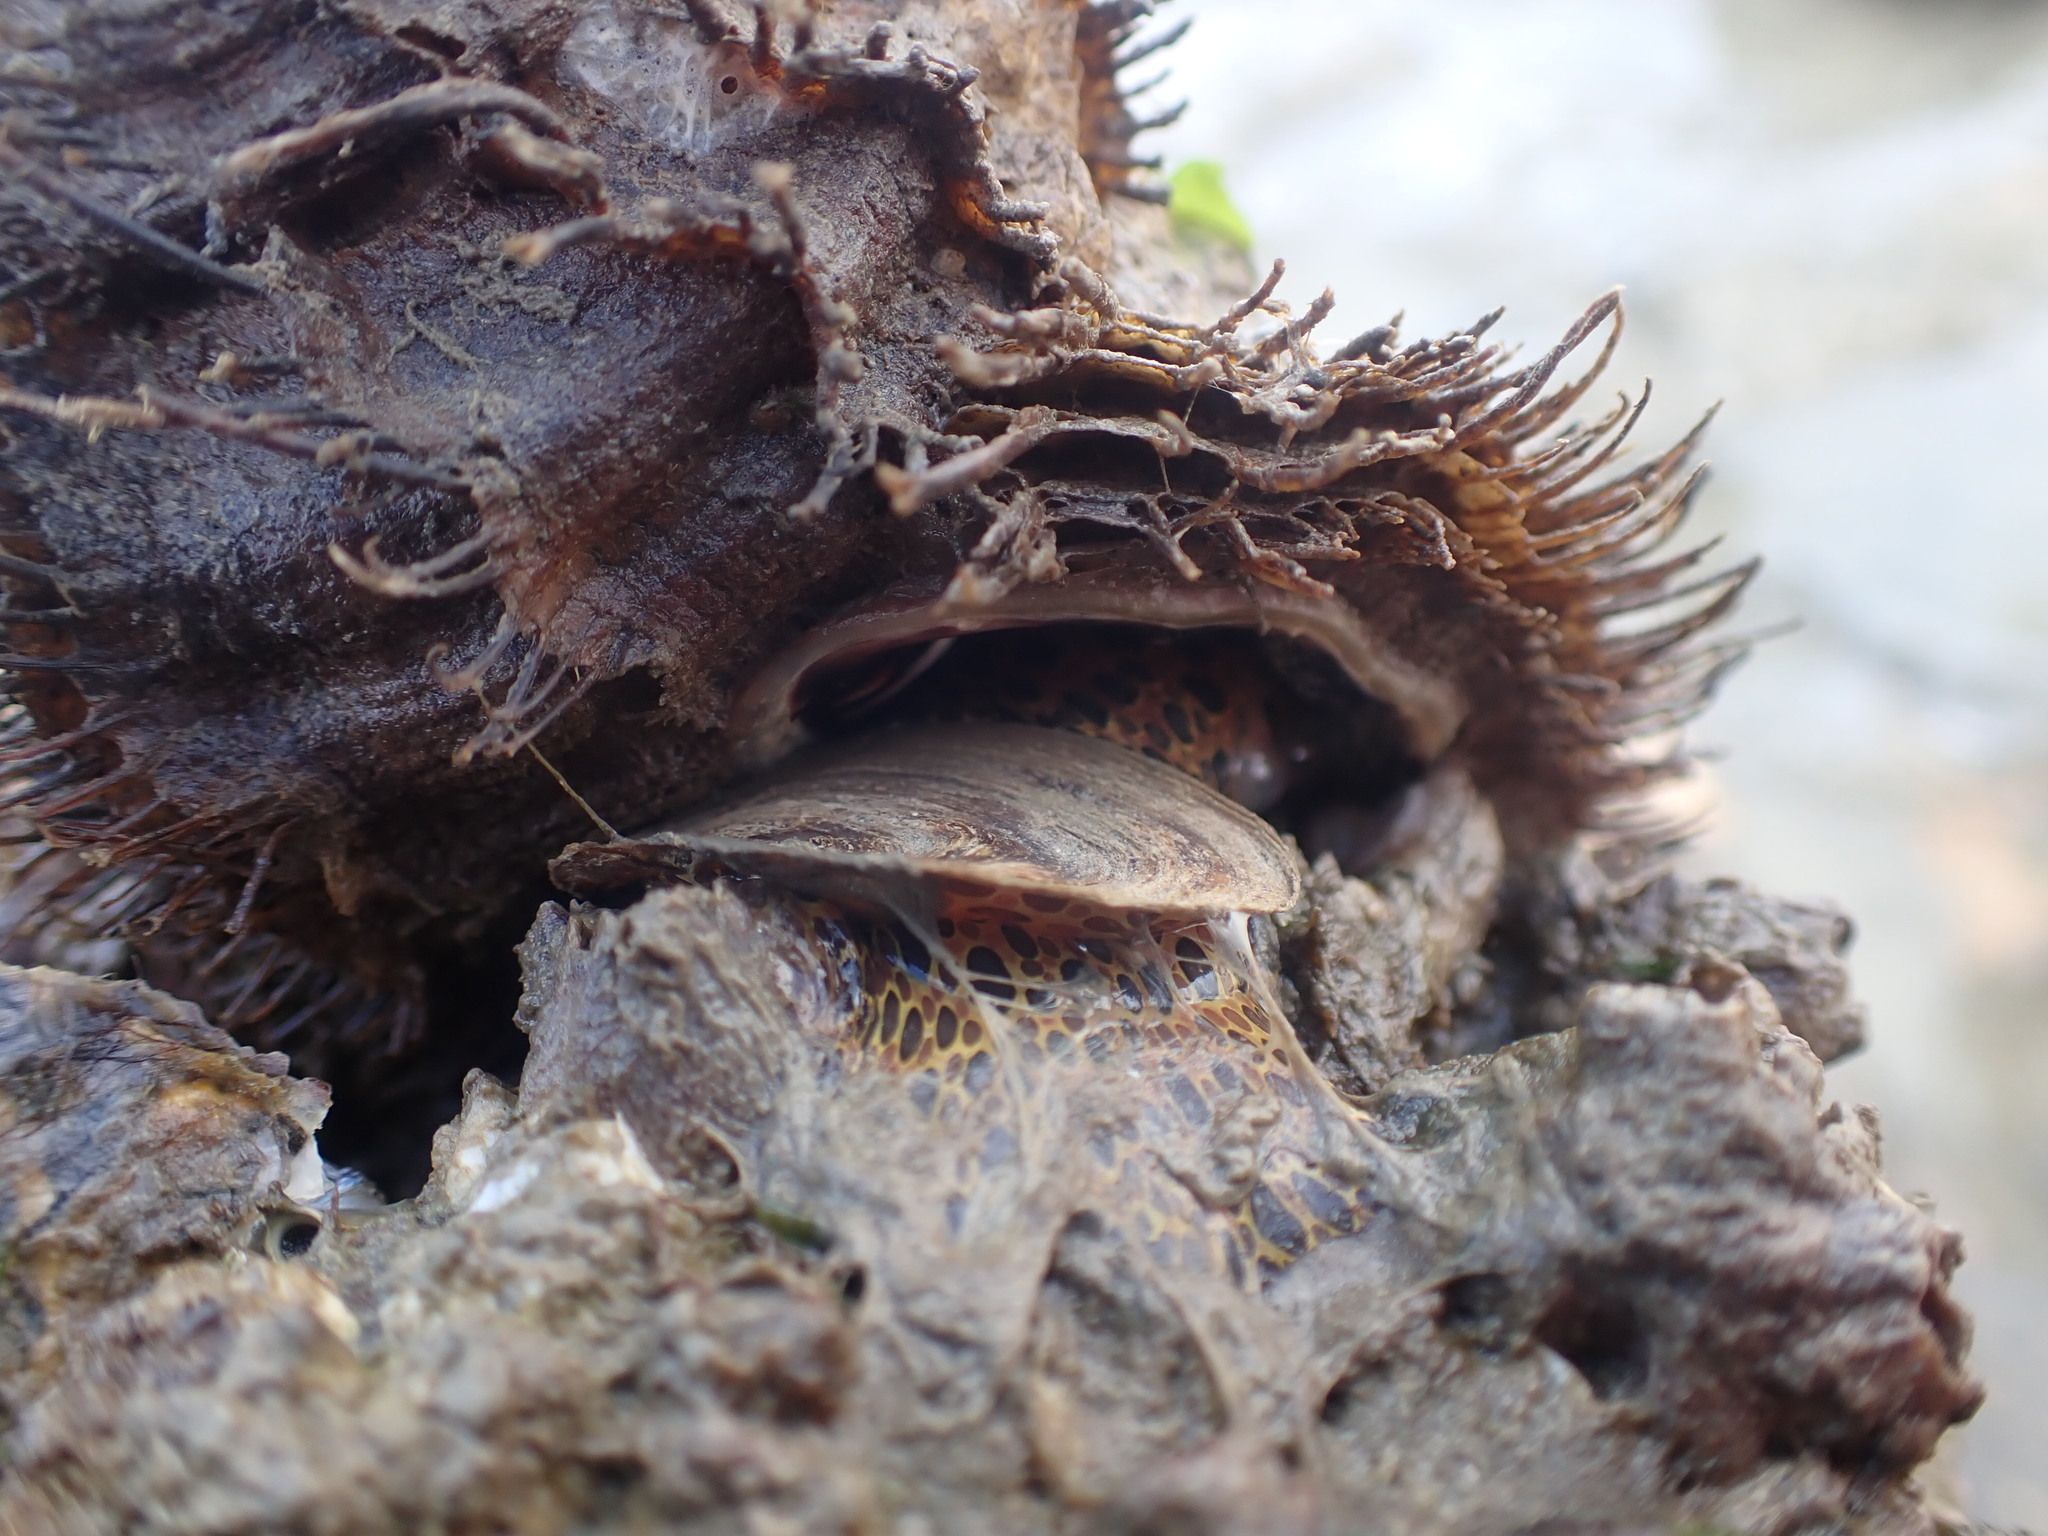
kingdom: Animalia
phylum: Mollusca
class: Gastropoda
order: Littorinimorpha
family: Cymatiidae
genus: Monoplex
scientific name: Monoplex parthenopeus
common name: Giant triton
